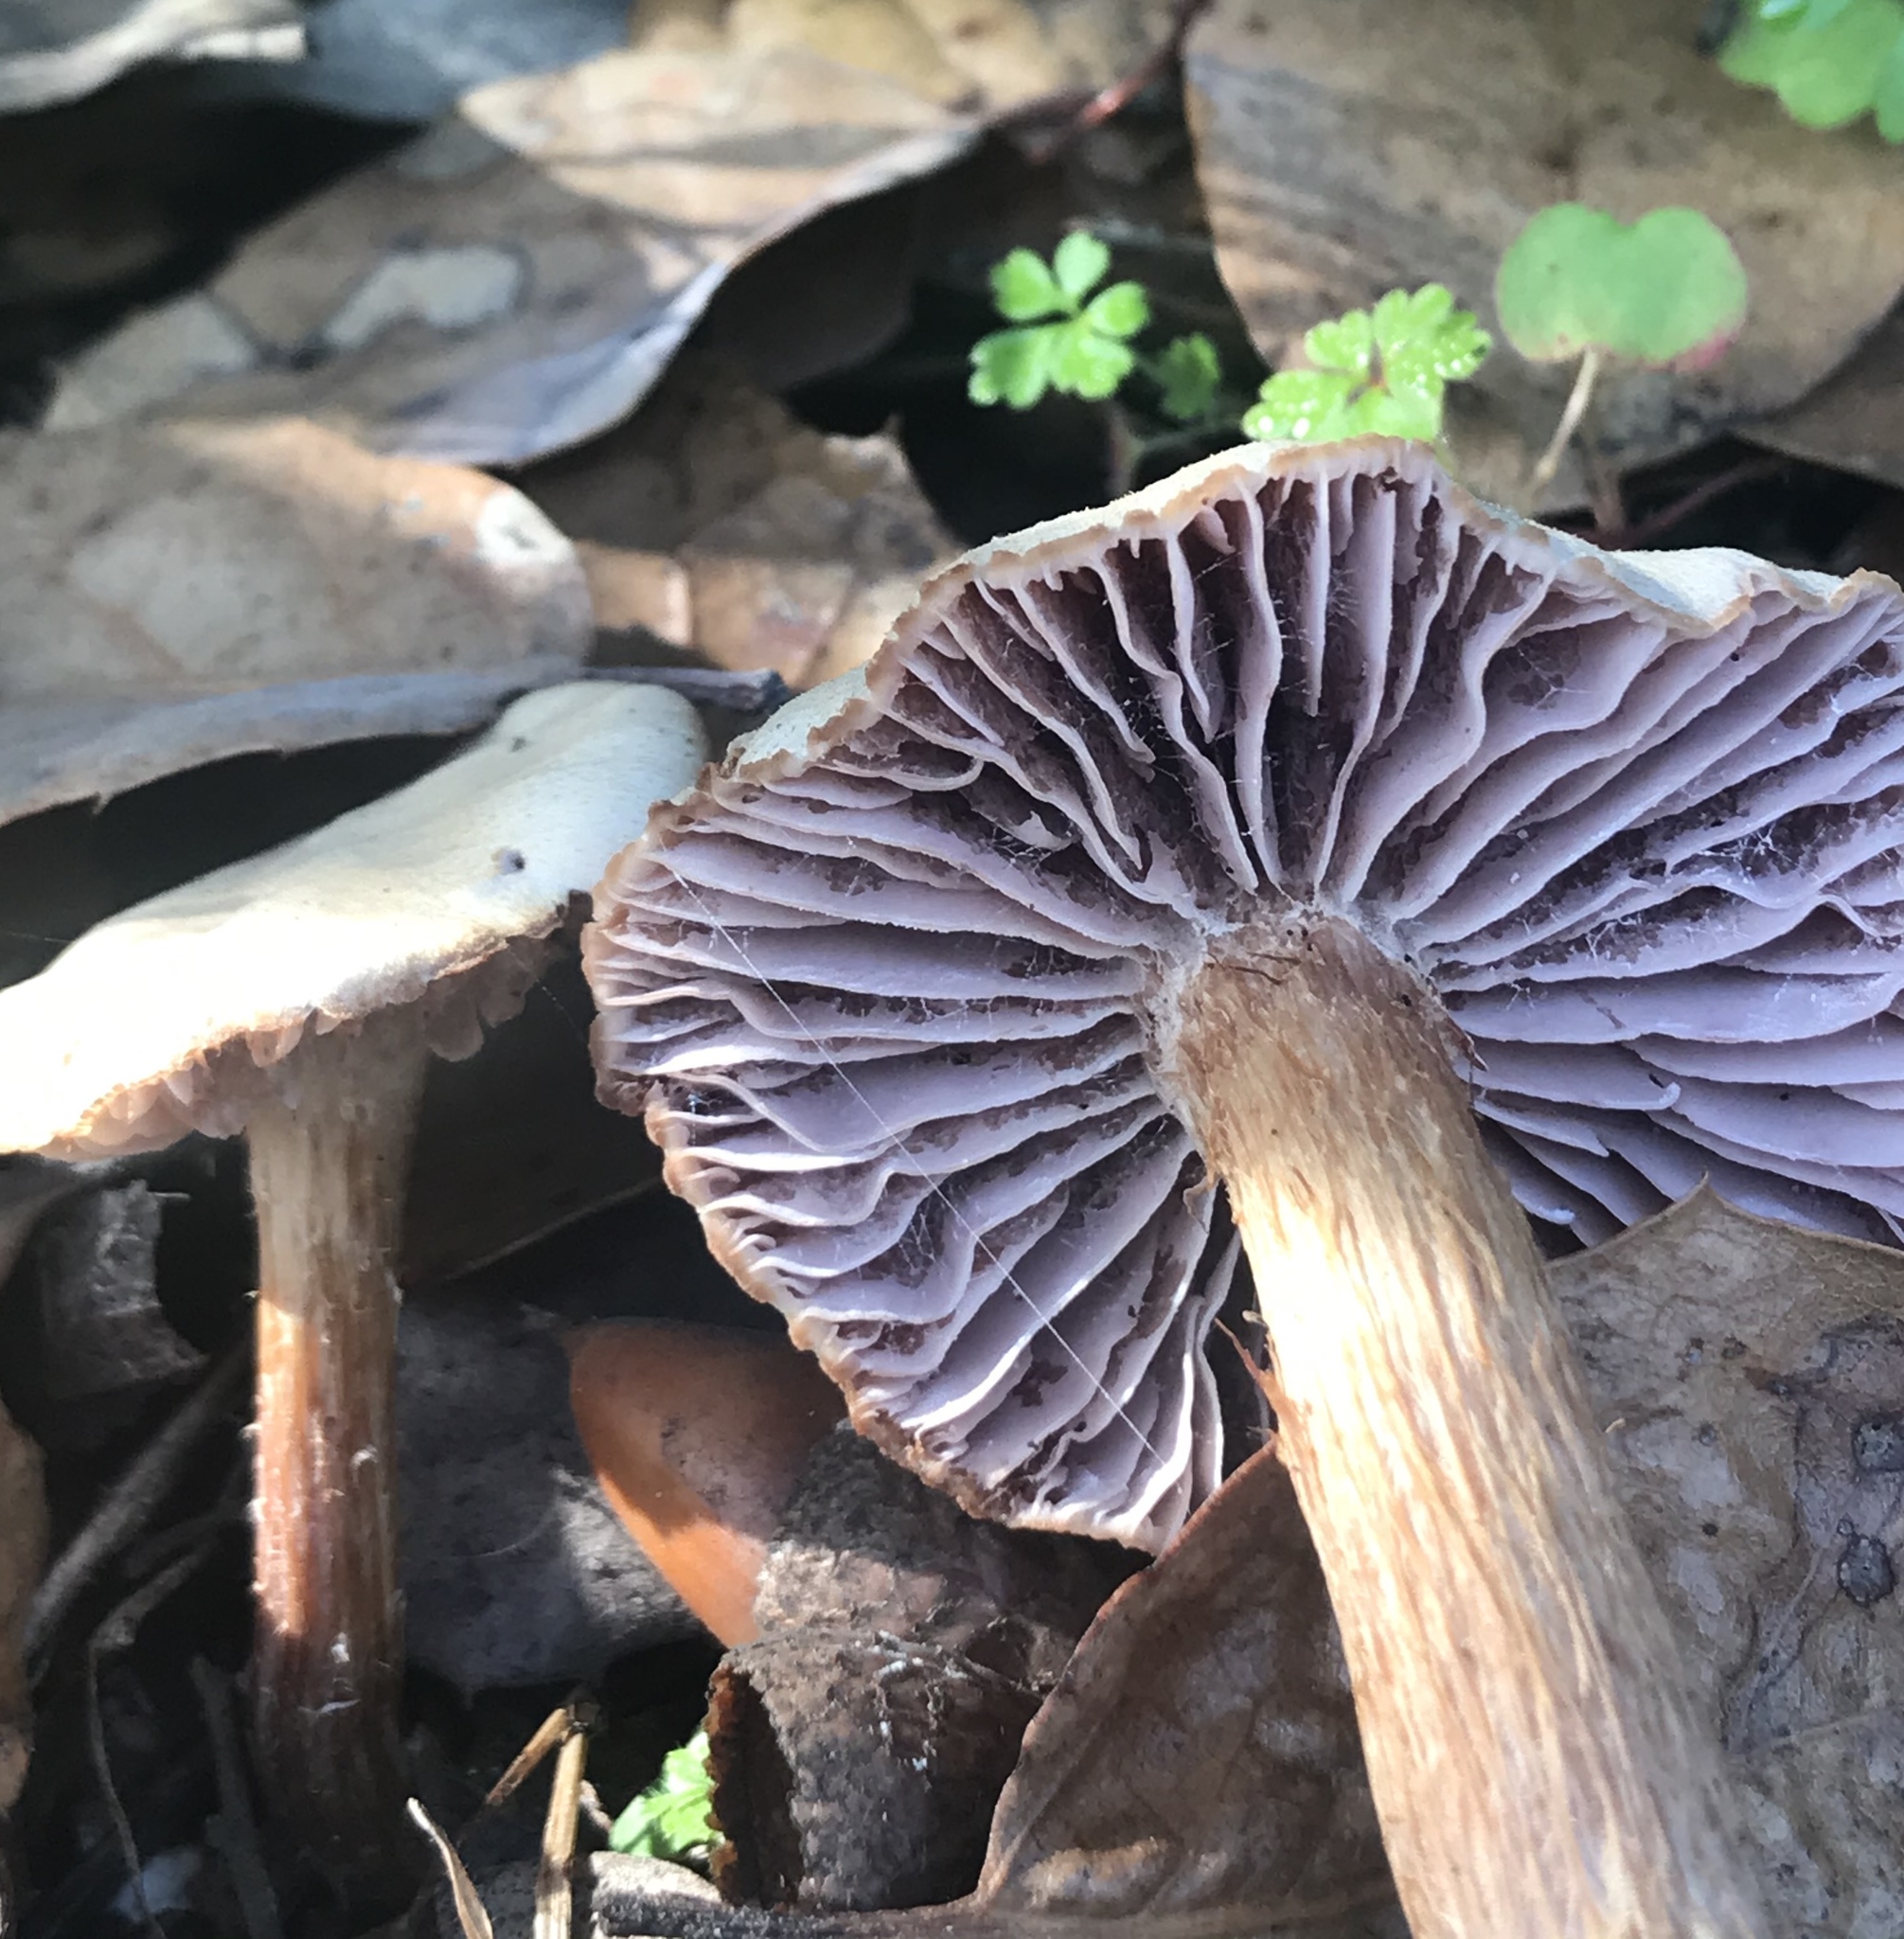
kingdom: Fungi
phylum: Basidiomycota
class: Agaricomycetes
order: Agaricales
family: Hydnangiaceae
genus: Laccaria
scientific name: Laccaria amethysteo-occidentalis
